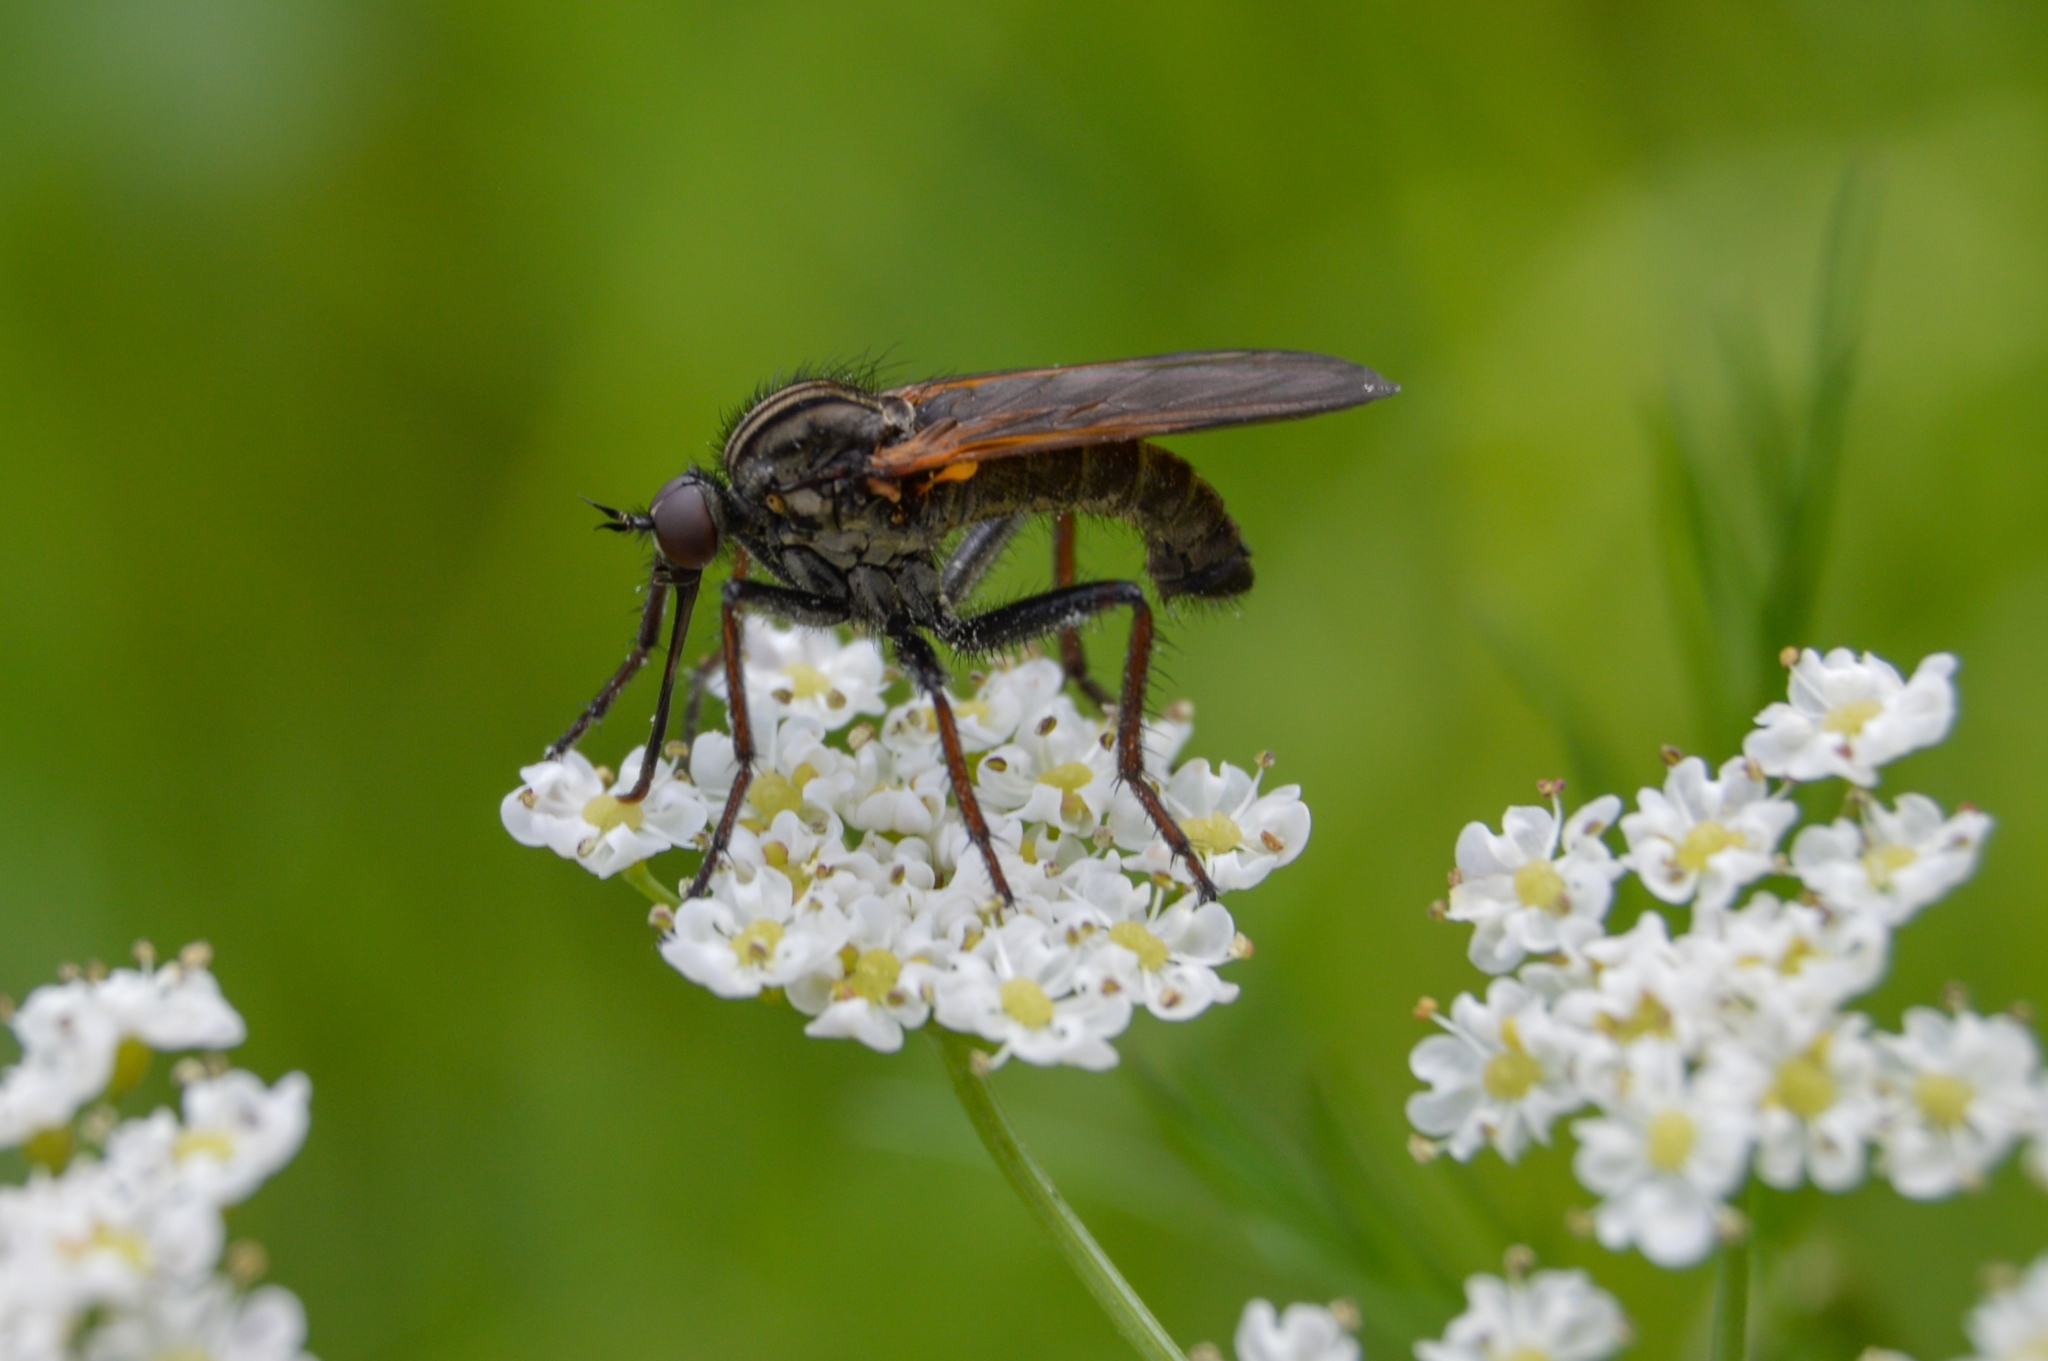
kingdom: Animalia
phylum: Arthropoda
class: Insecta
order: Diptera
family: Empididae
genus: Empis
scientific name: Empis tessellata
